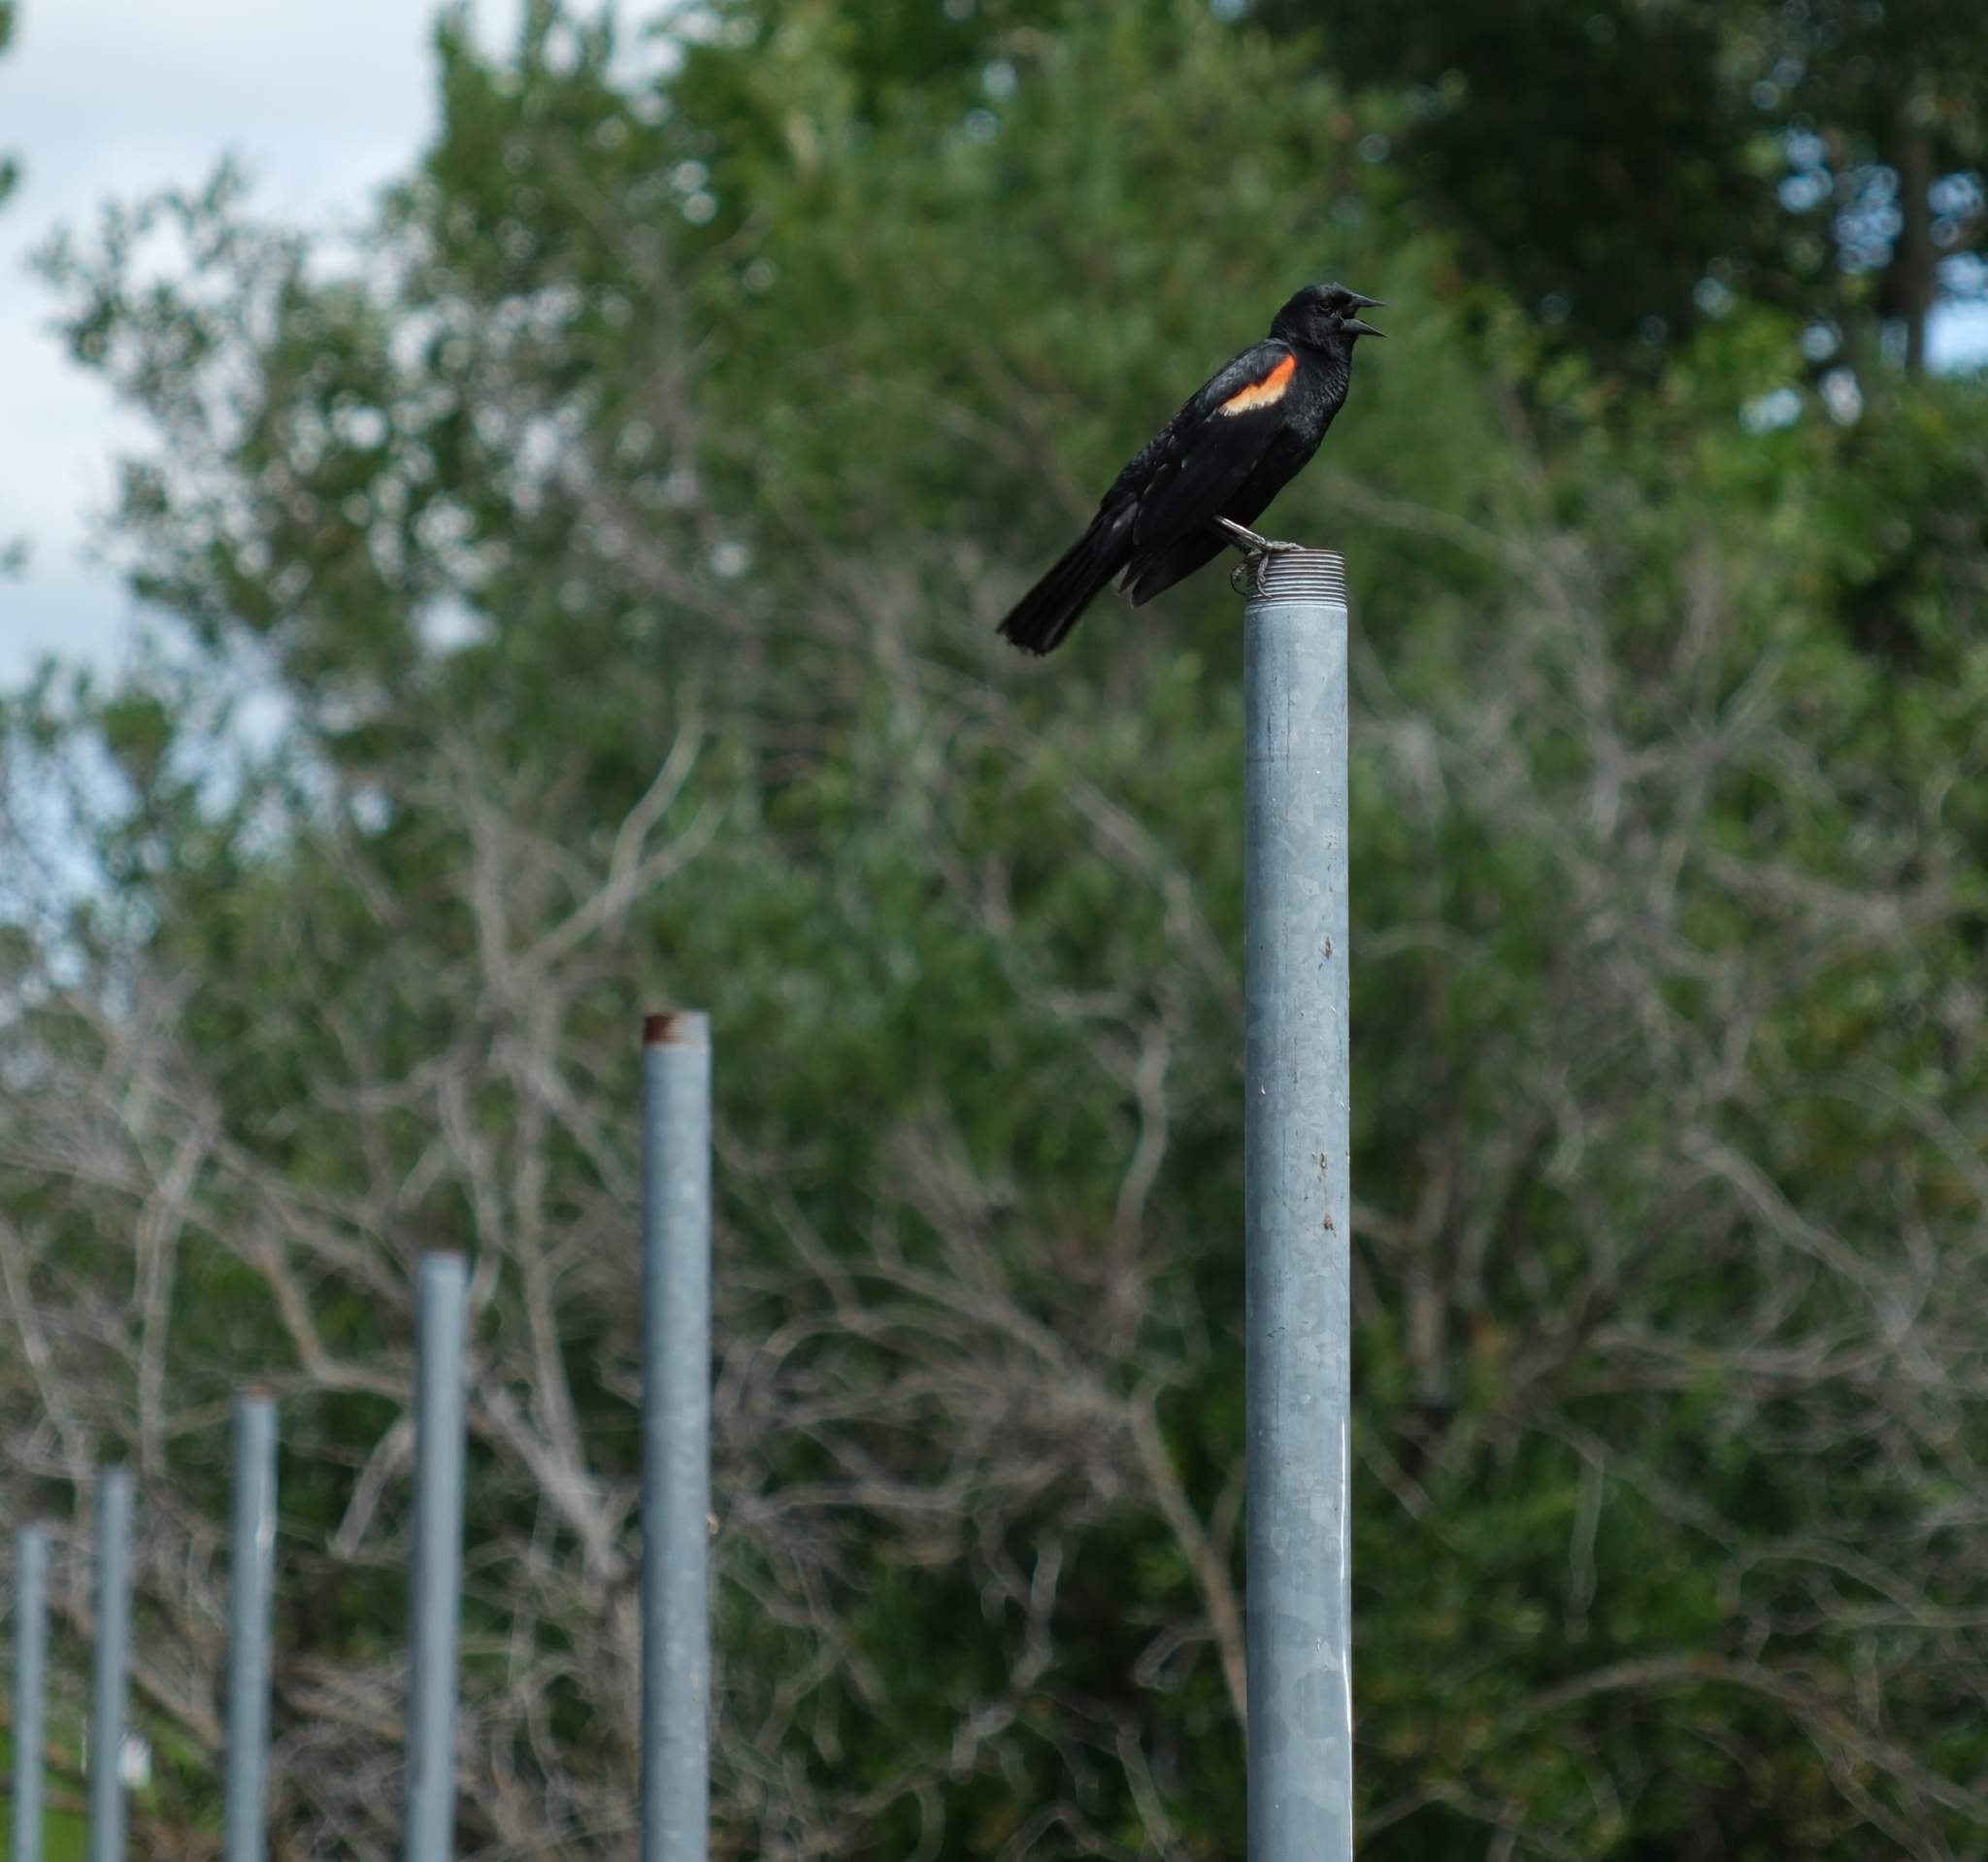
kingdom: Animalia
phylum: Chordata
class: Aves
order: Passeriformes
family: Icteridae
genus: Agelaius
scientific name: Agelaius phoeniceus
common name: Red-winged blackbird
